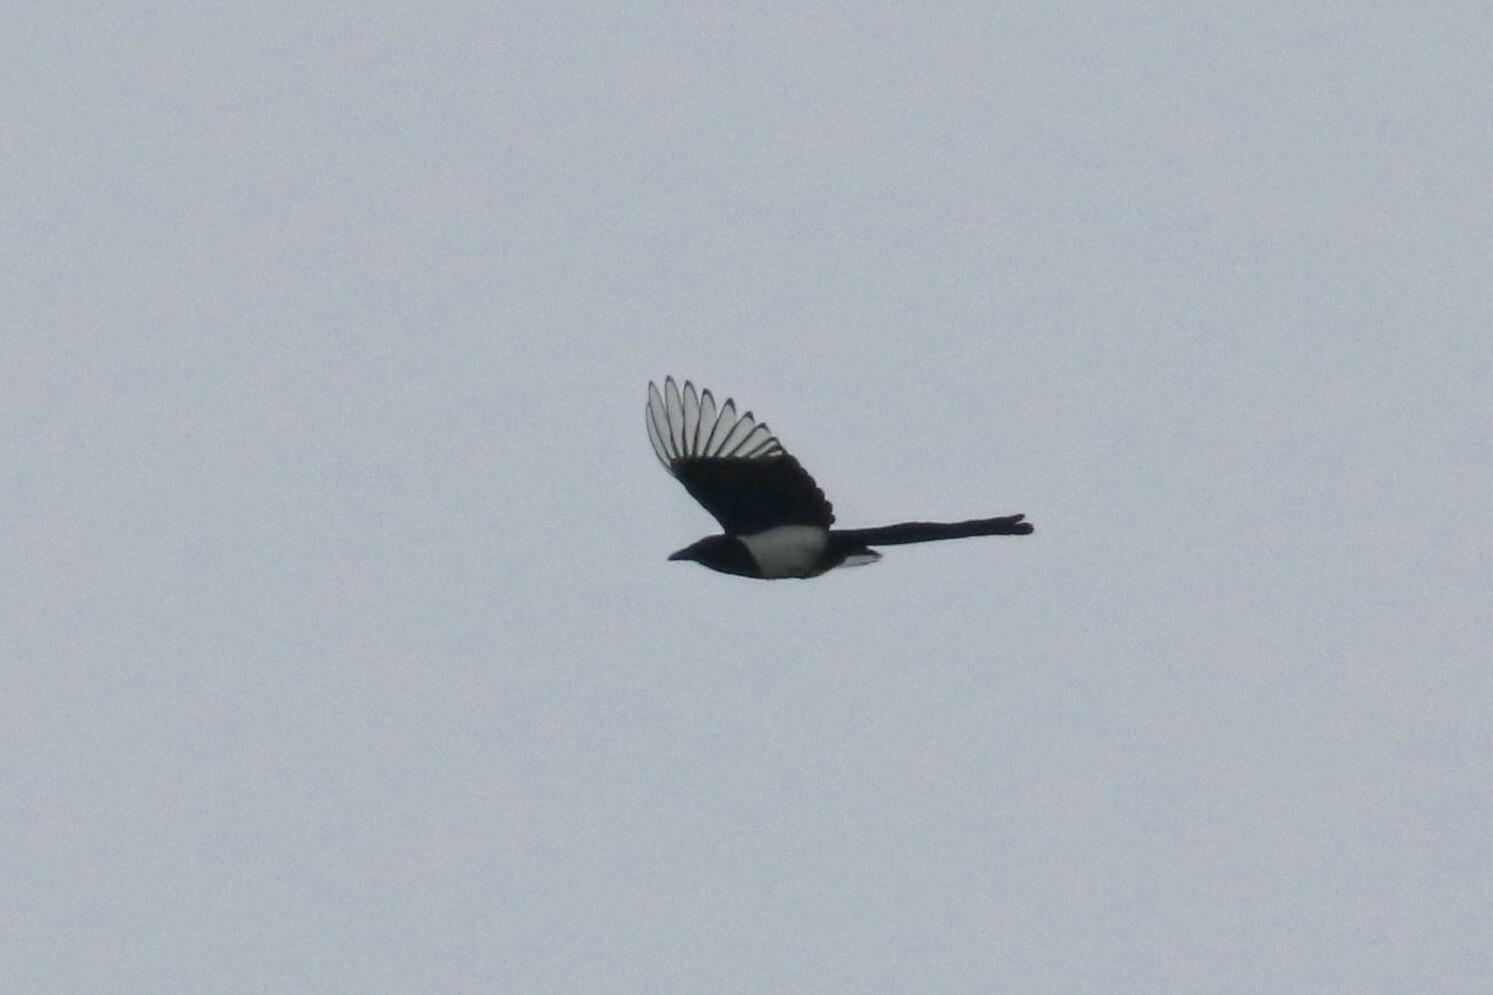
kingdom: Animalia
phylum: Chordata
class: Aves
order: Passeriformes
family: Corvidae
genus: Pica
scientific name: Pica pica
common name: Eurasian magpie
